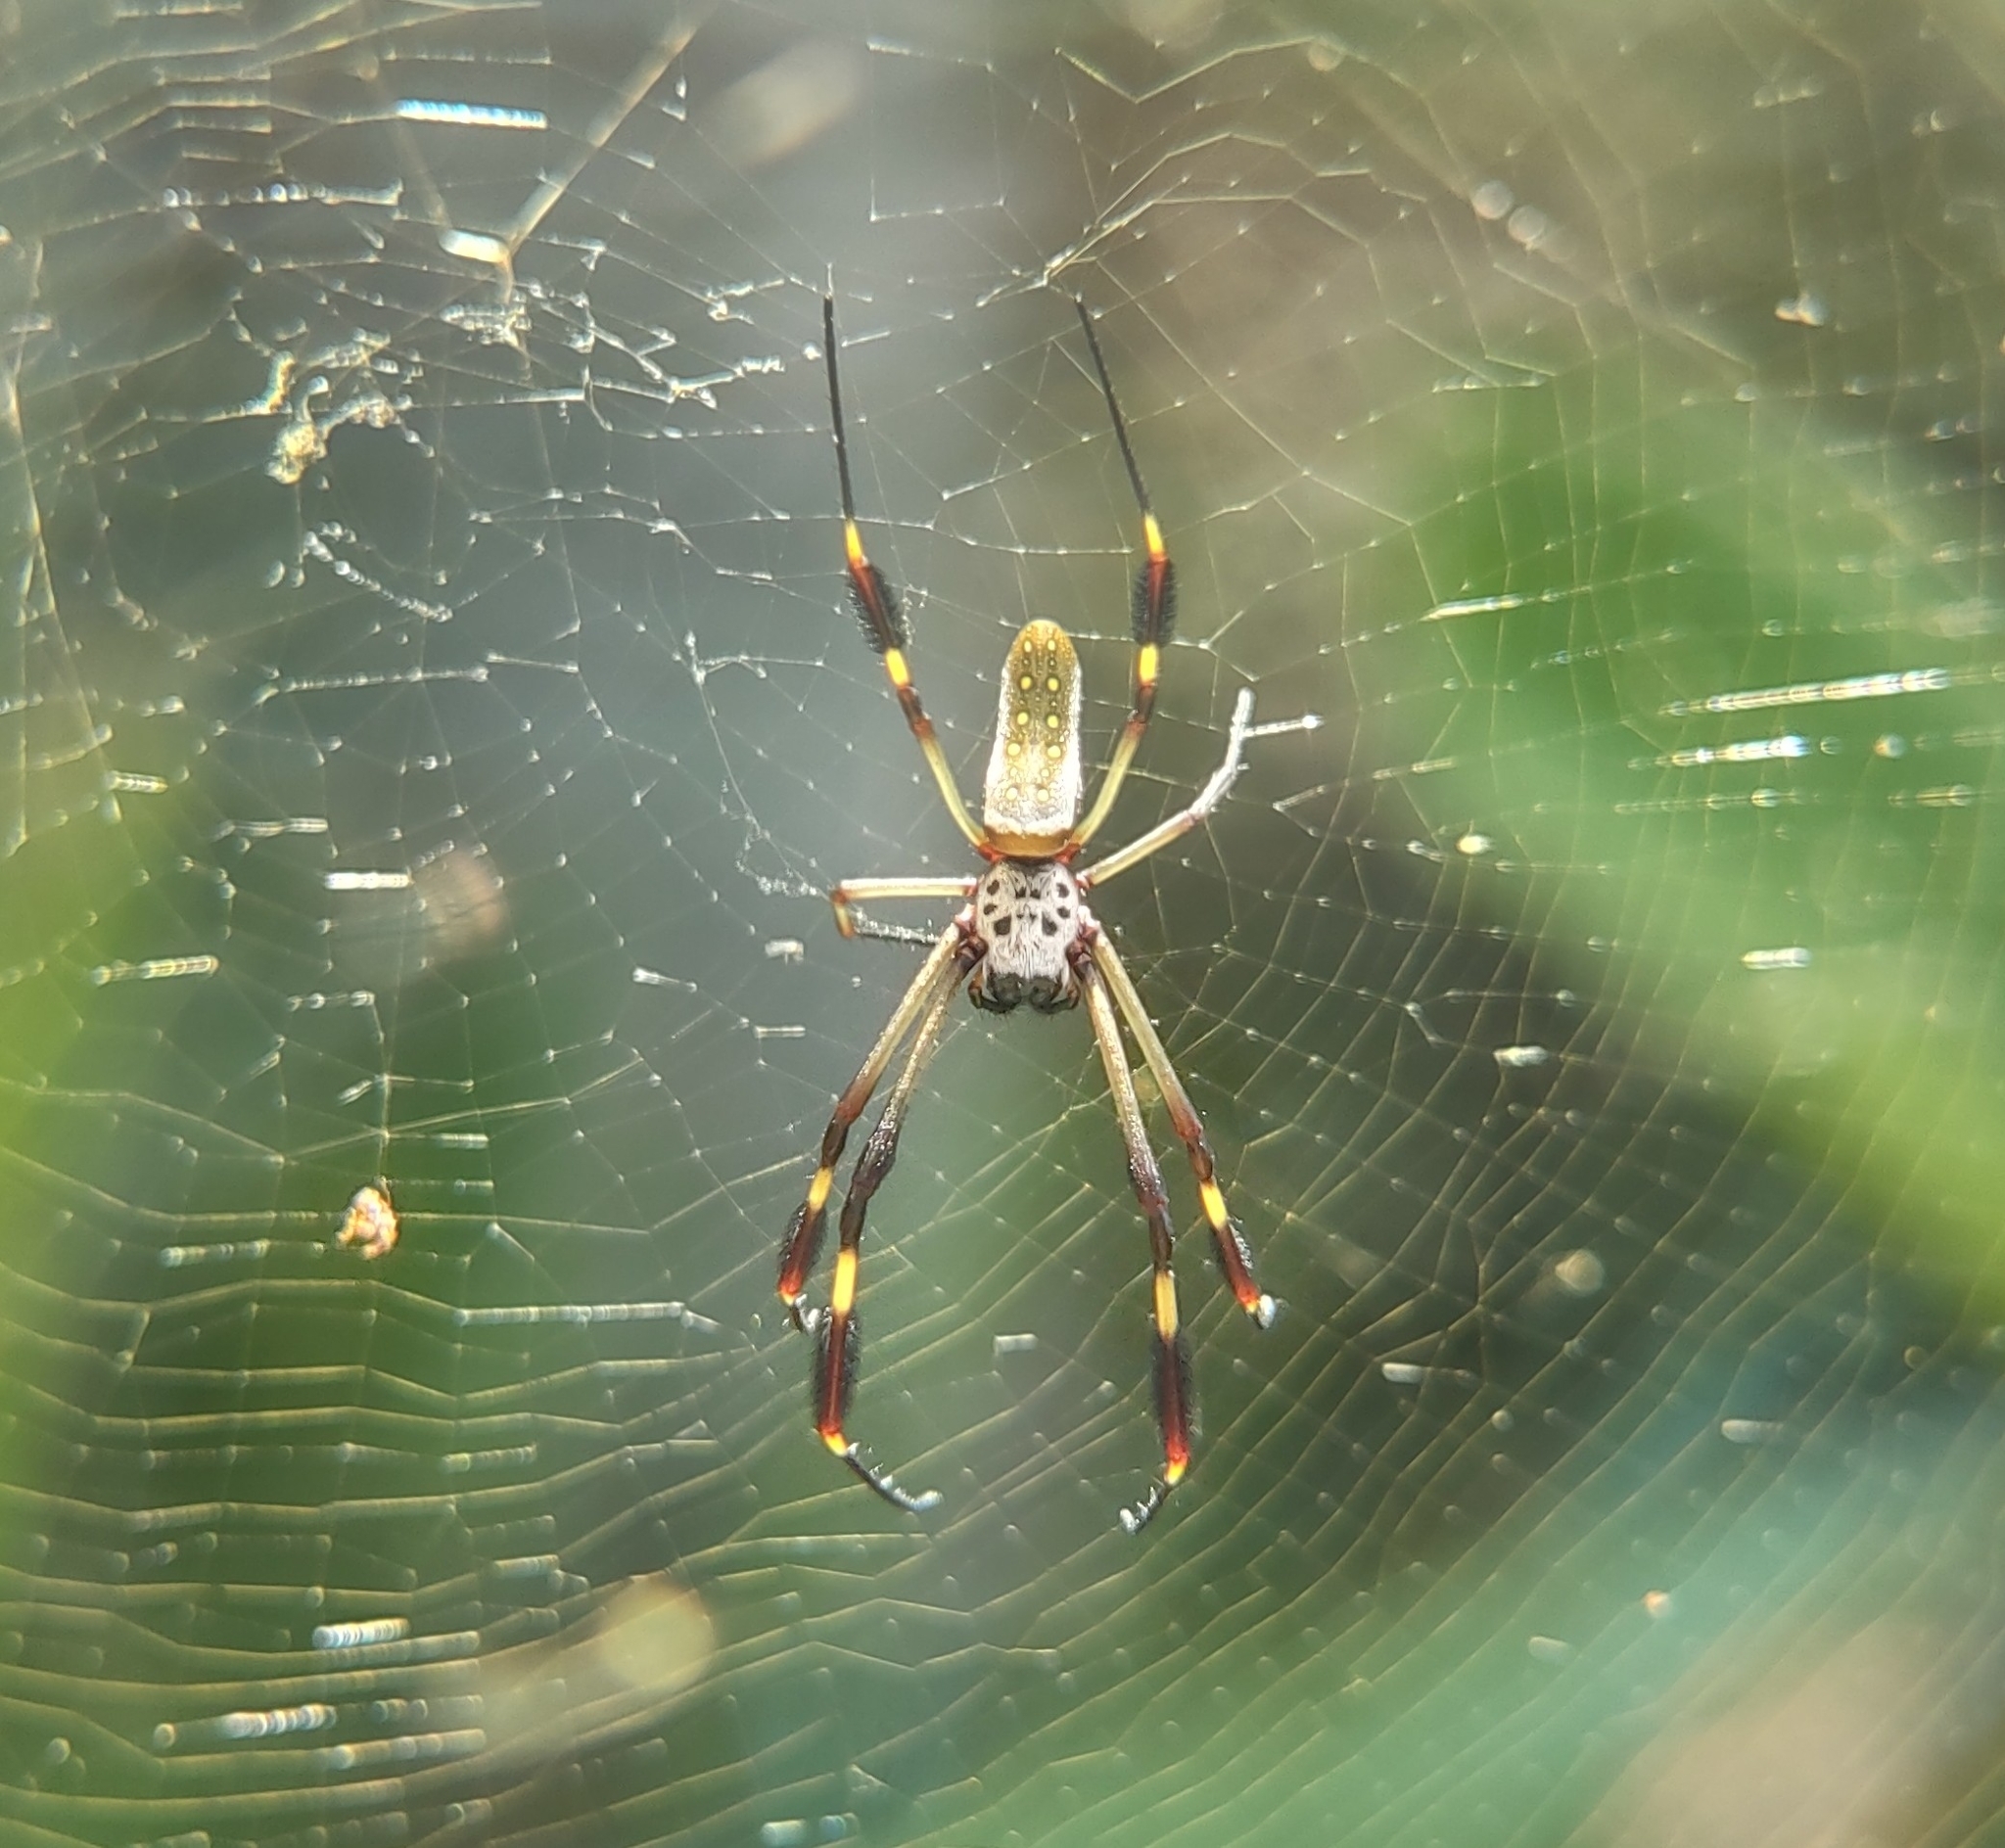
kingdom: Animalia
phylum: Arthropoda
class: Arachnida
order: Araneae
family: Araneidae
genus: Trichonephila
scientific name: Trichonephila clavipes
